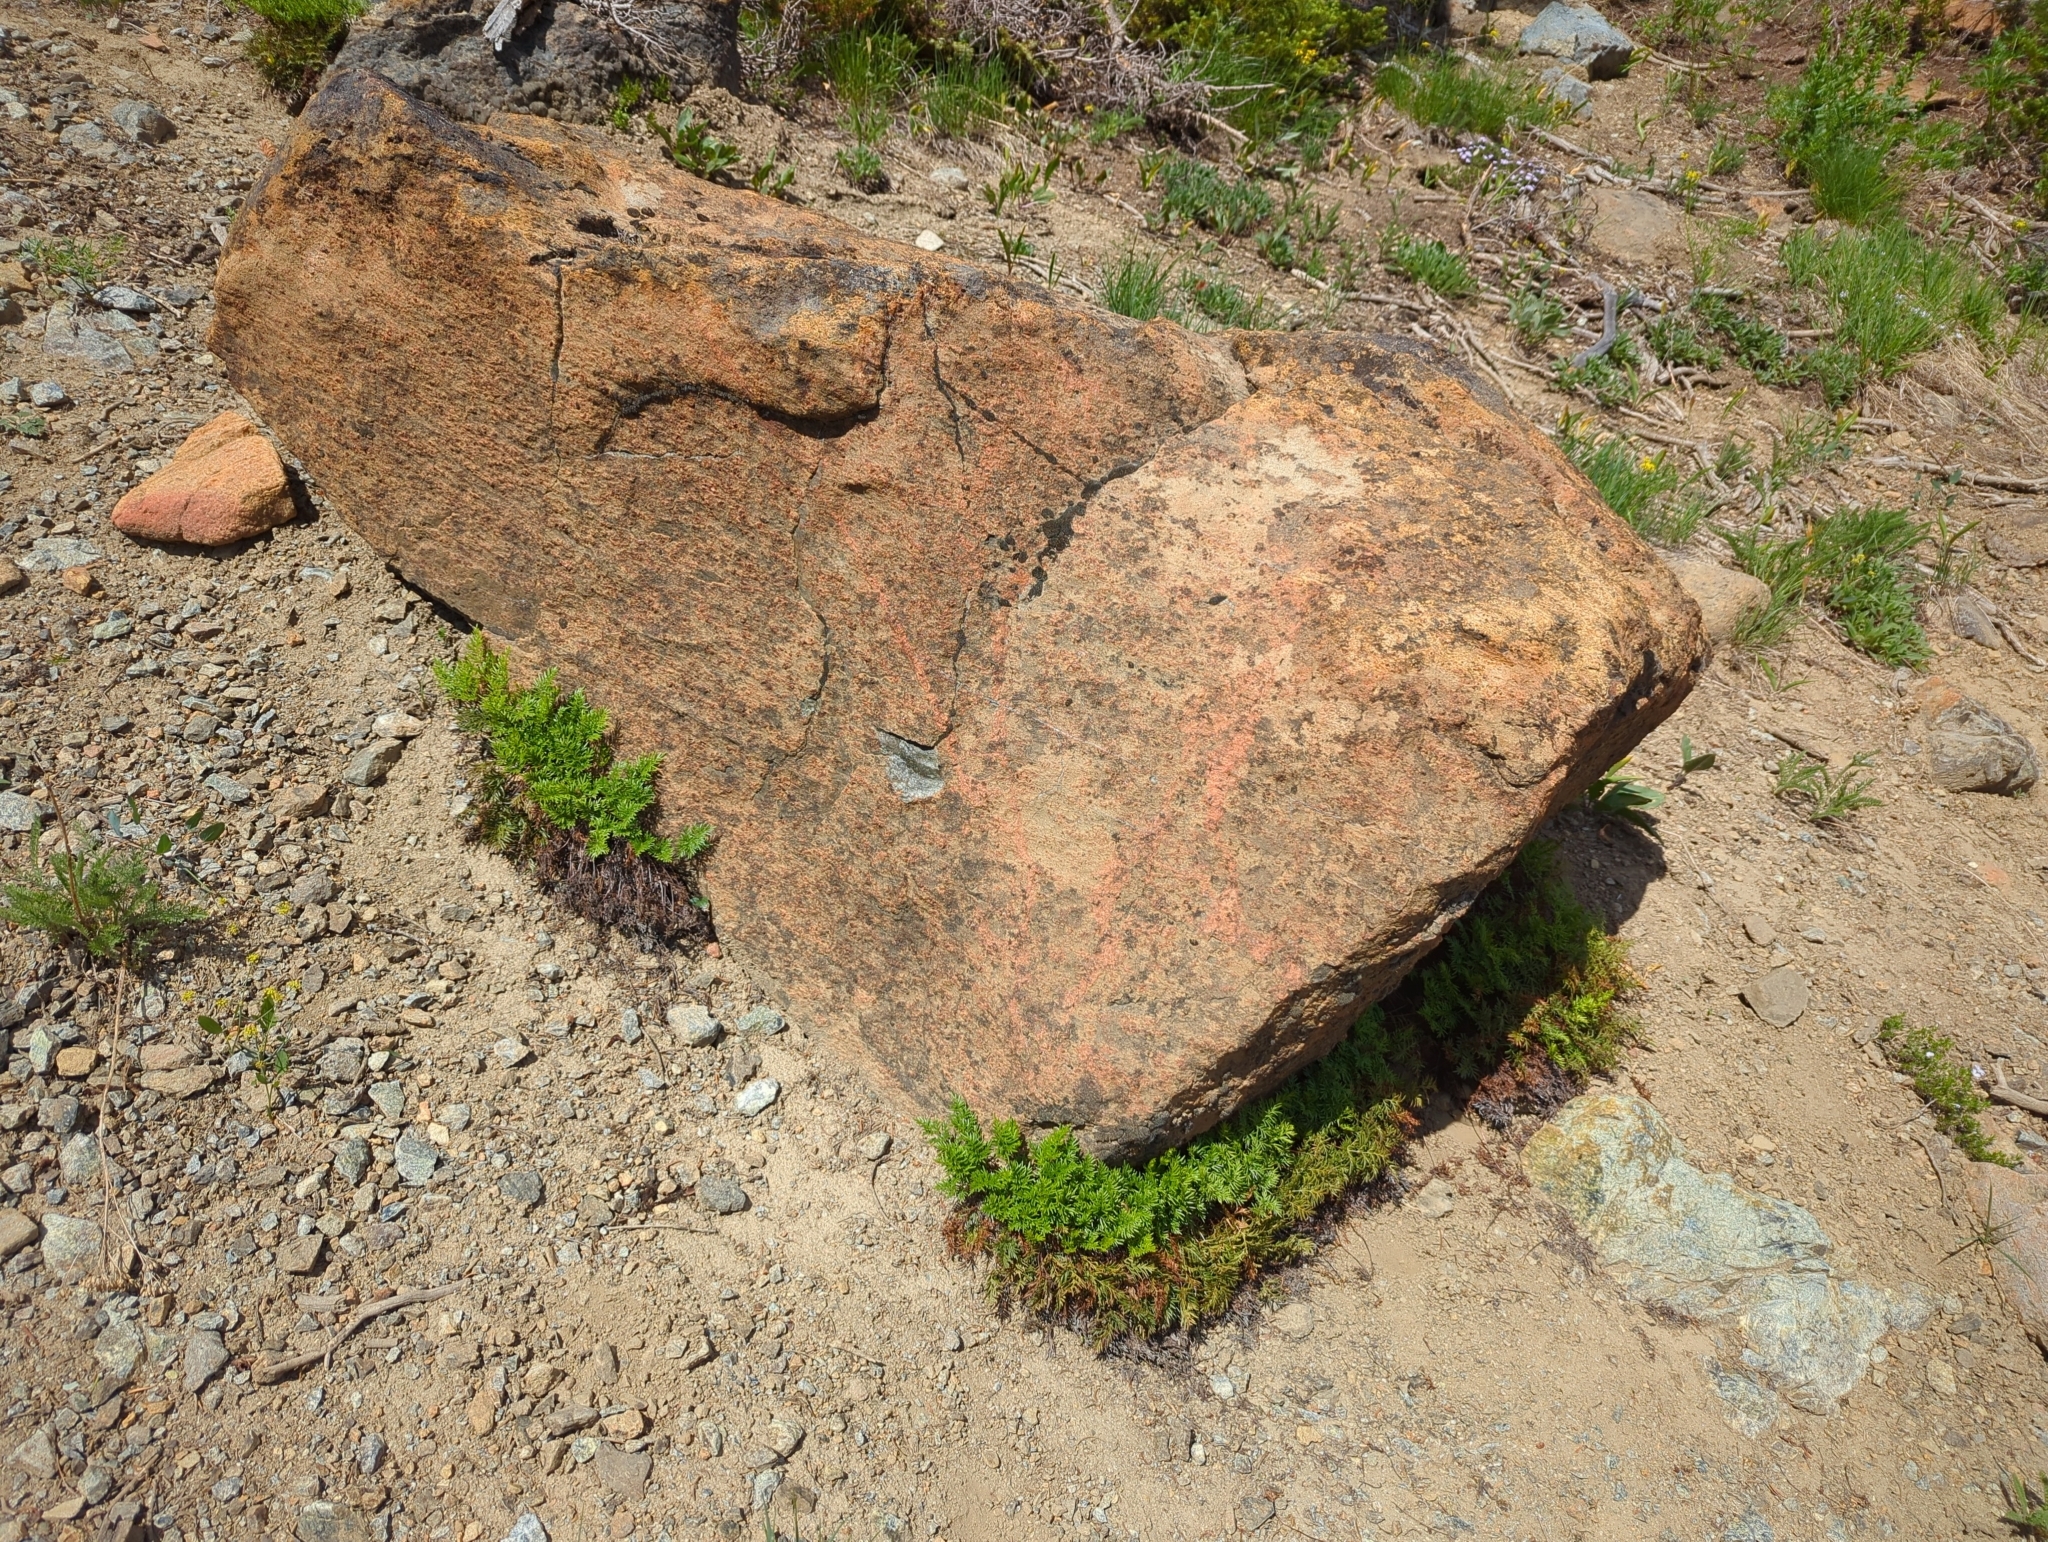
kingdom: Plantae
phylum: Tracheophyta
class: Polypodiopsida
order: Polypodiales
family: Pteridaceae
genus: Aspidotis
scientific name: Aspidotis densa
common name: Indian's dream
